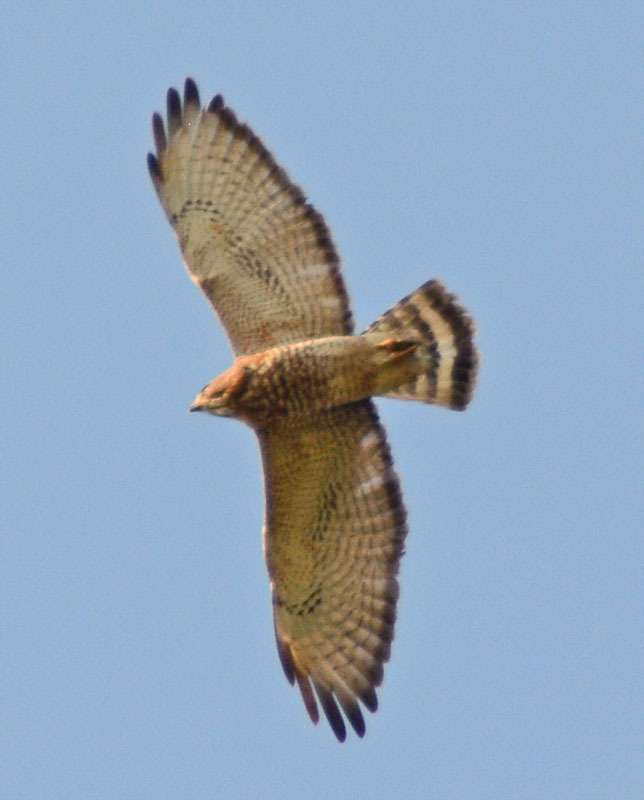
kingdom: Animalia
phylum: Chordata
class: Aves
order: Accipitriformes
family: Accipitridae
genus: Buteo
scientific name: Buteo platypterus
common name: Broad-winged hawk
